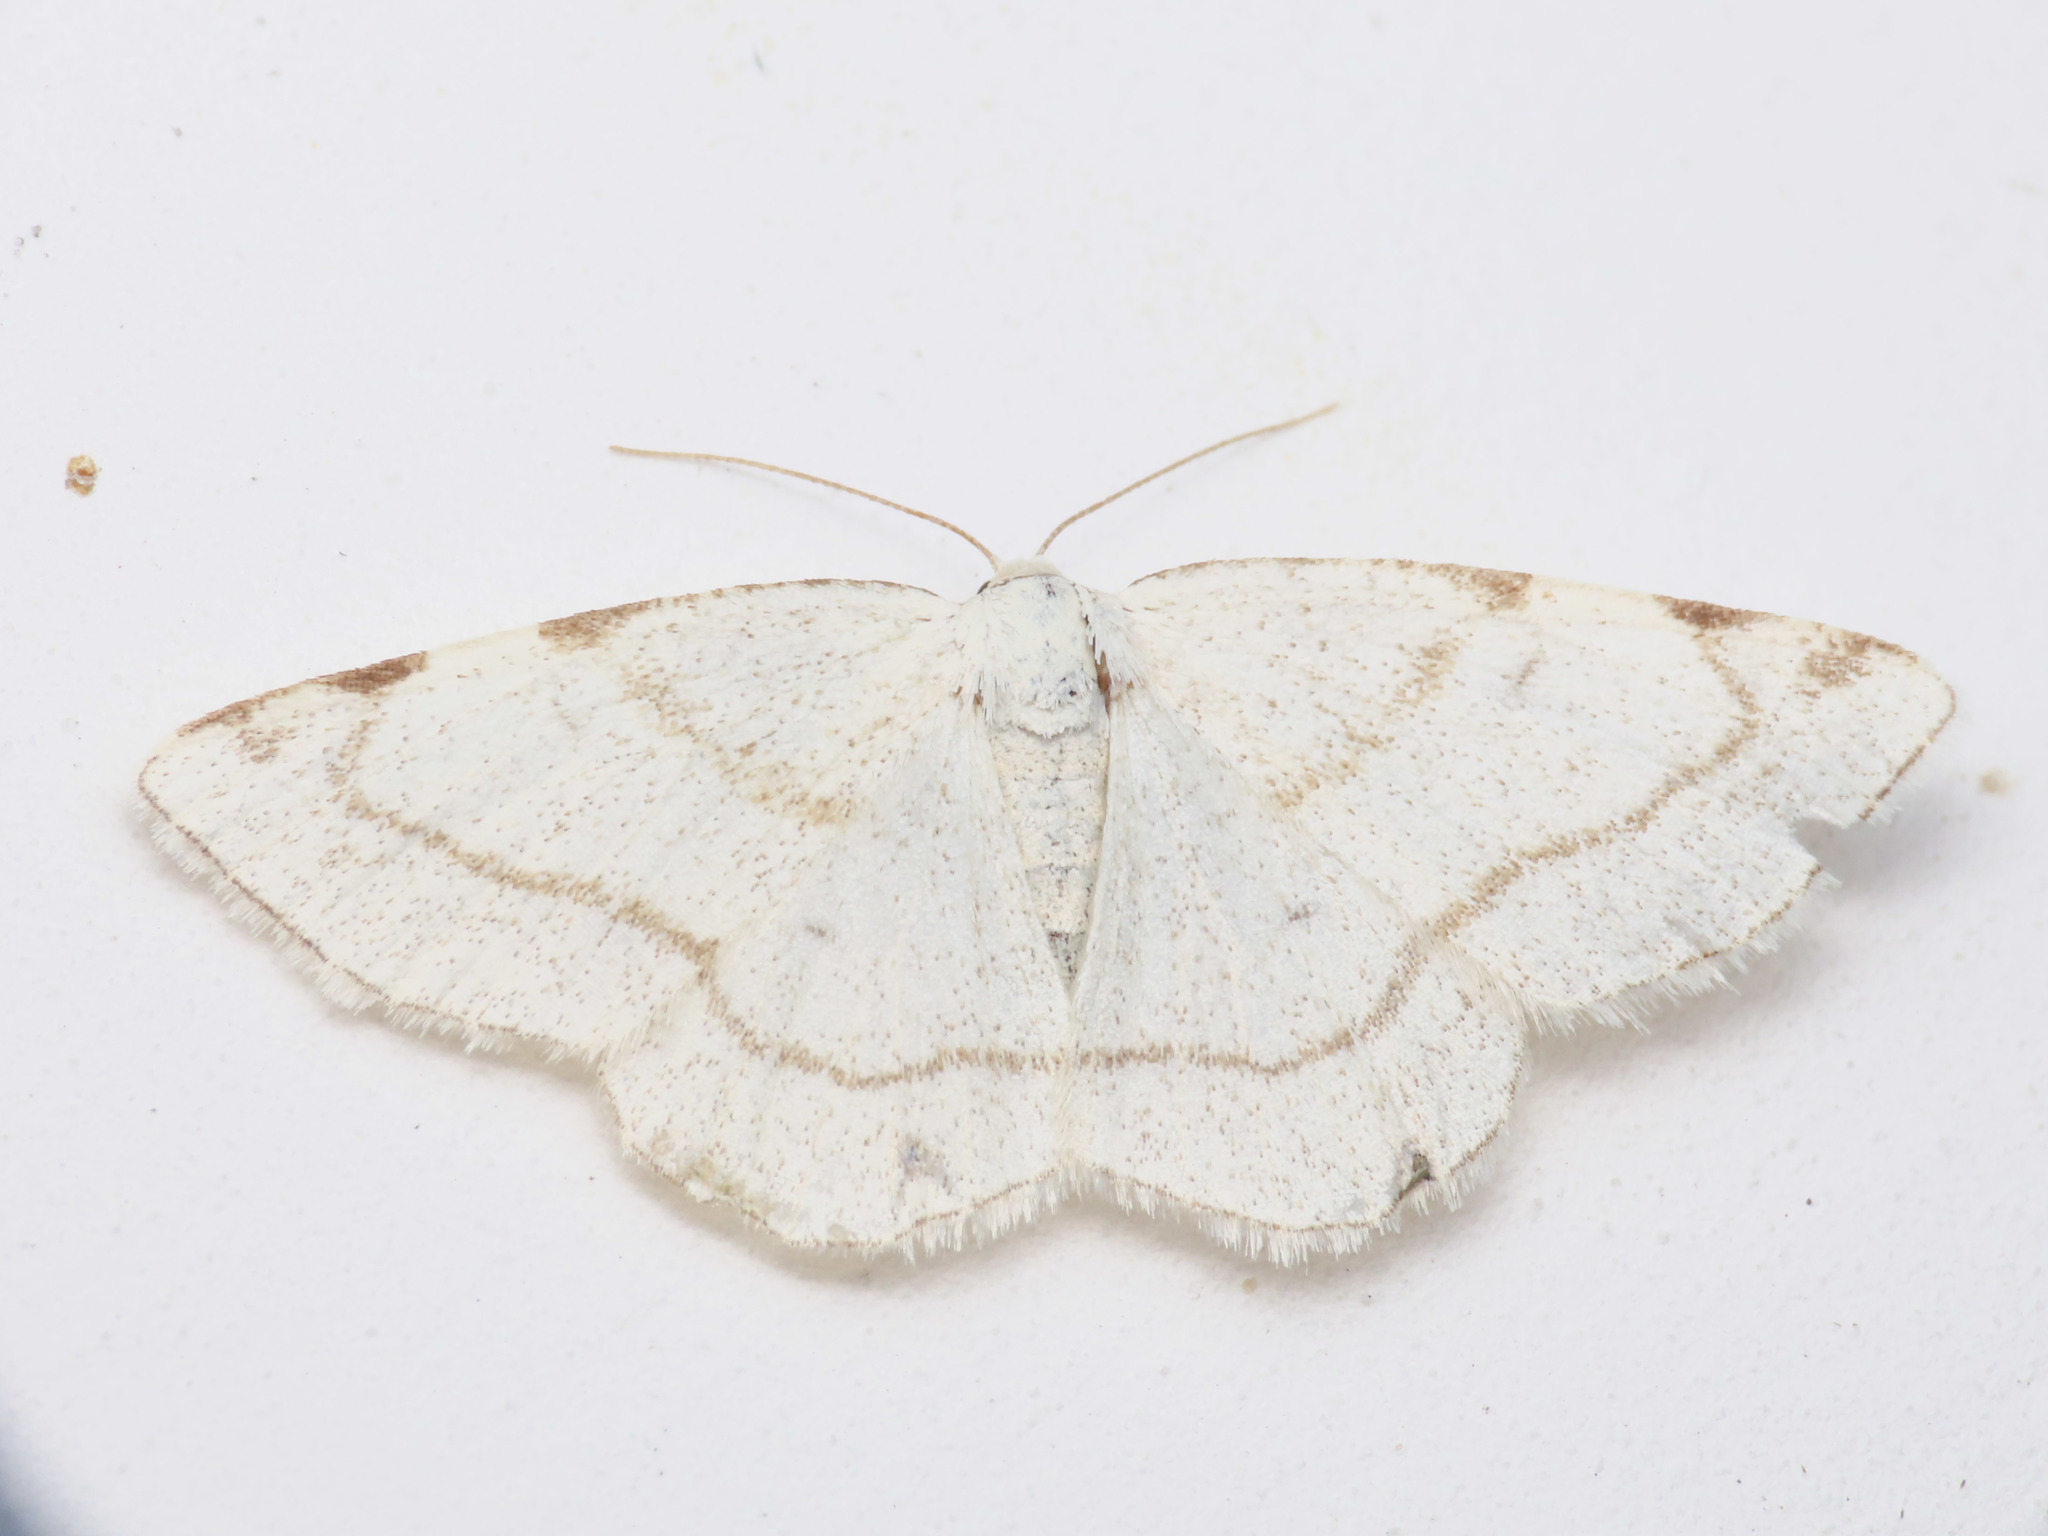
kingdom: Animalia
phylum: Arthropoda
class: Insecta
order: Lepidoptera
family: Geometridae
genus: Stegania
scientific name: Stegania trimaculata
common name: Dorset cream wave
